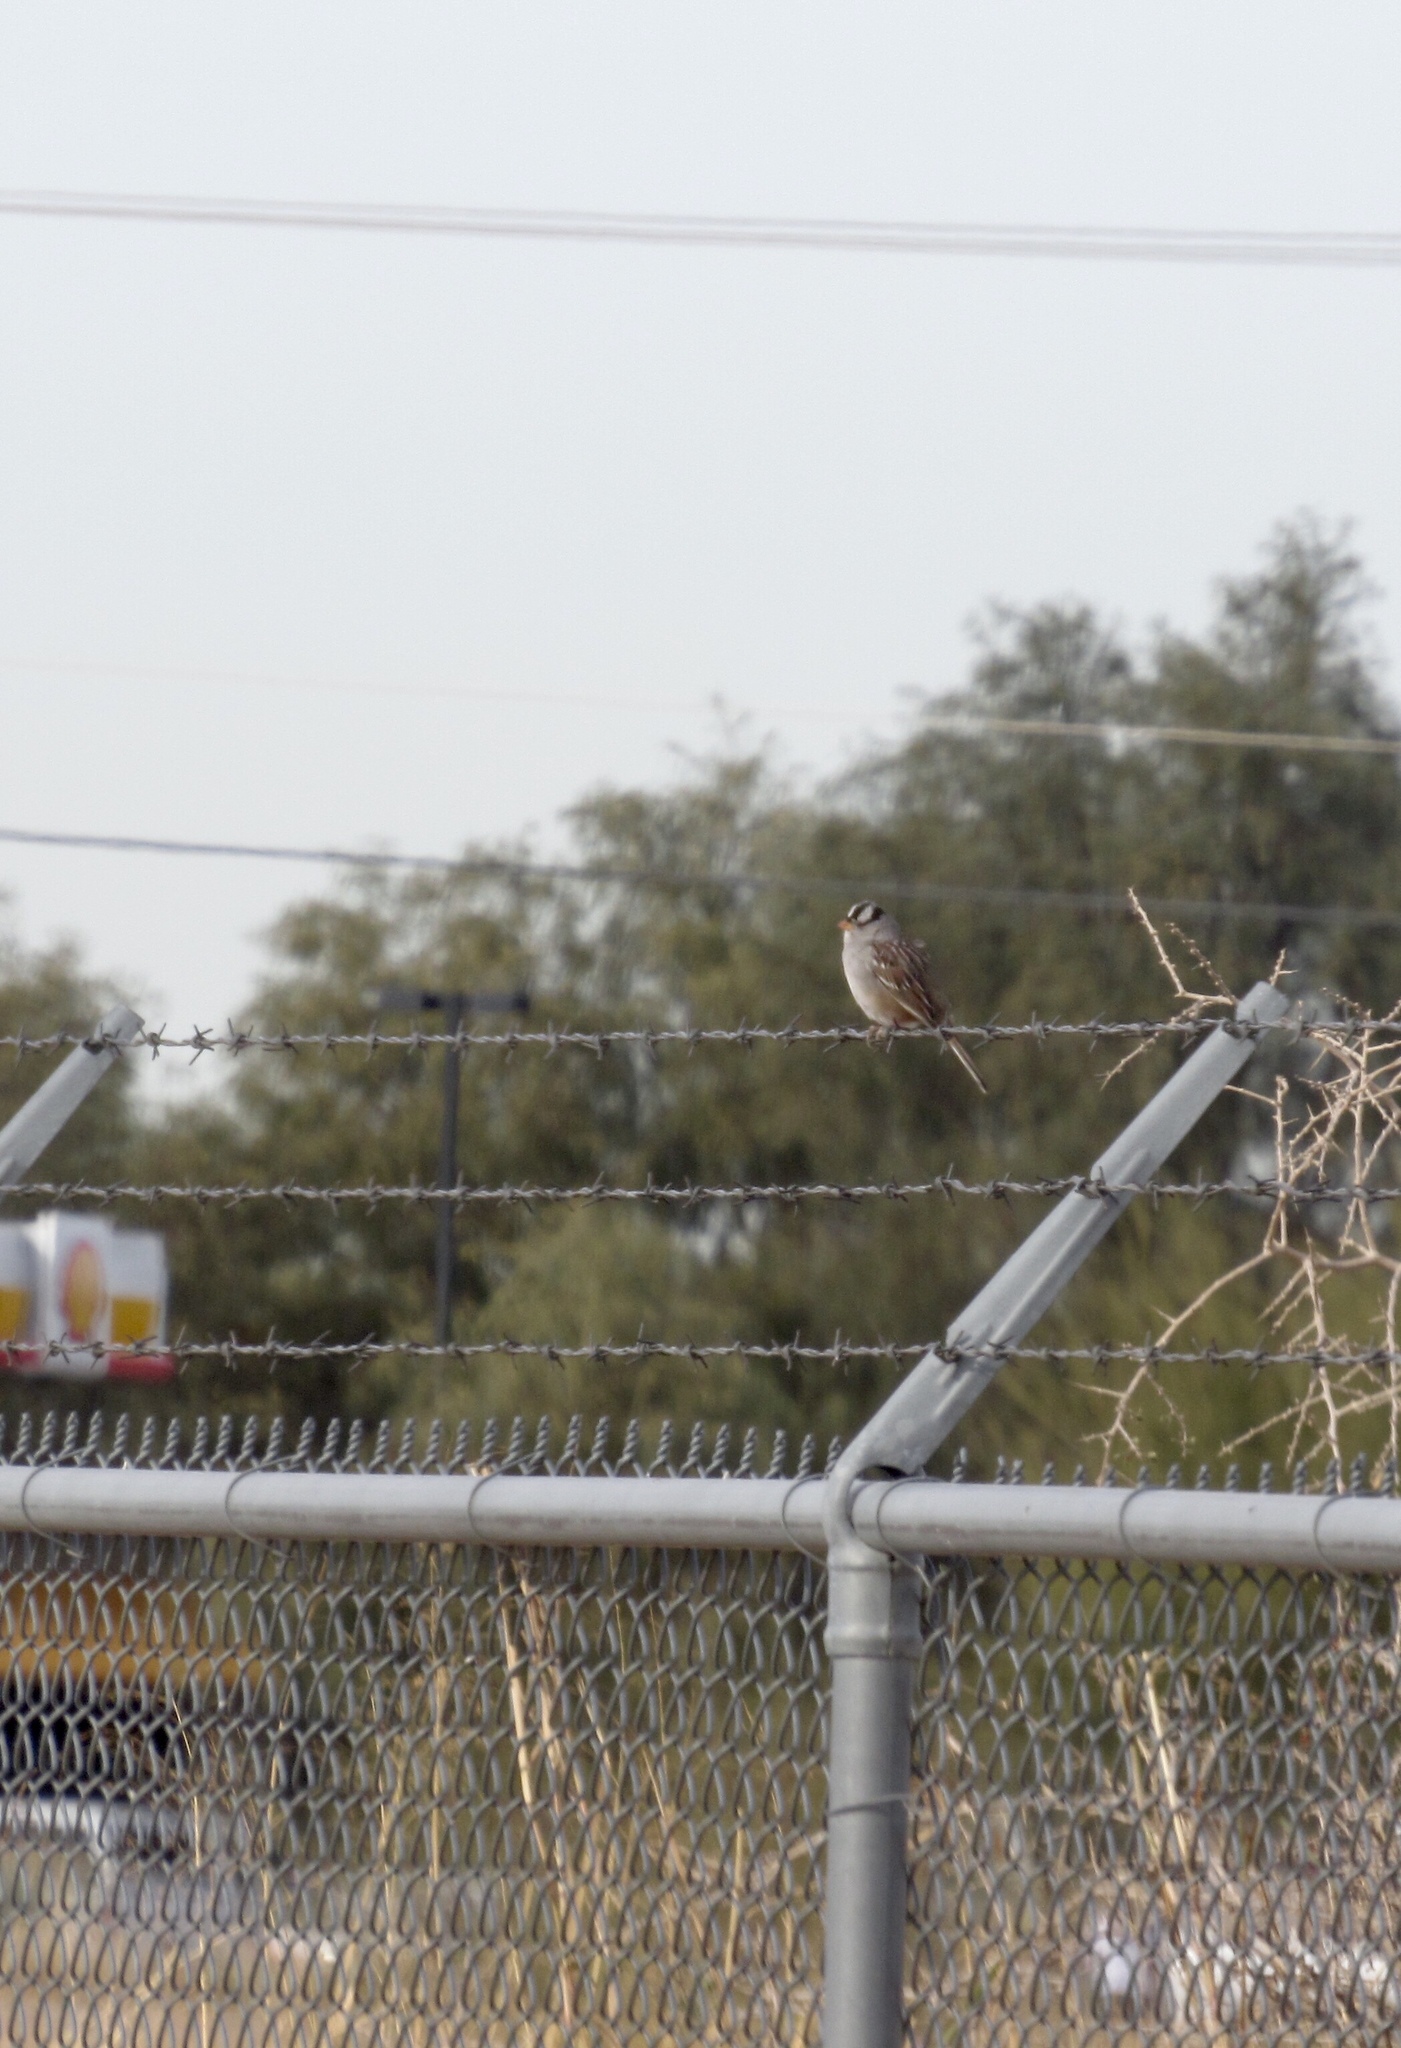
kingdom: Animalia
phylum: Chordata
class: Aves
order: Passeriformes
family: Passerellidae
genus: Zonotrichia
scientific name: Zonotrichia leucophrys
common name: White-crowned sparrow
